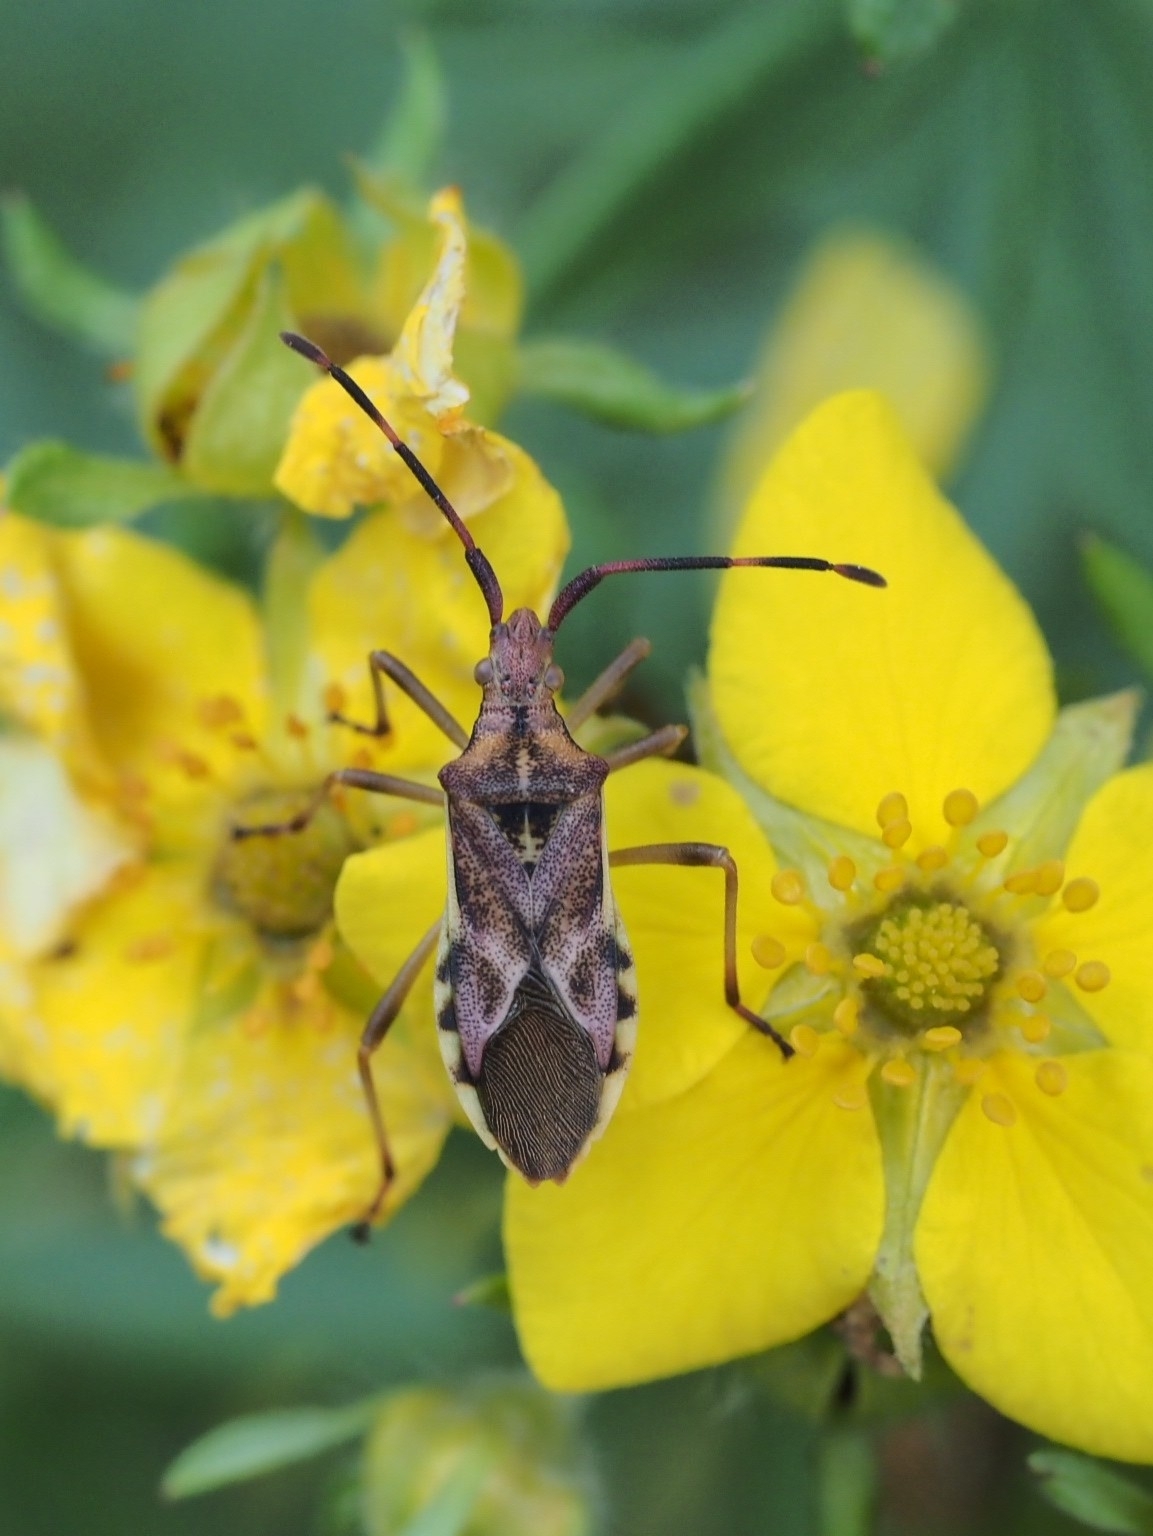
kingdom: Animalia
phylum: Arthropoda
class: Insecta
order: Hemiptera
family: Coreidae
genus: Gonocerus
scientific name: Gonocerus juniperi
